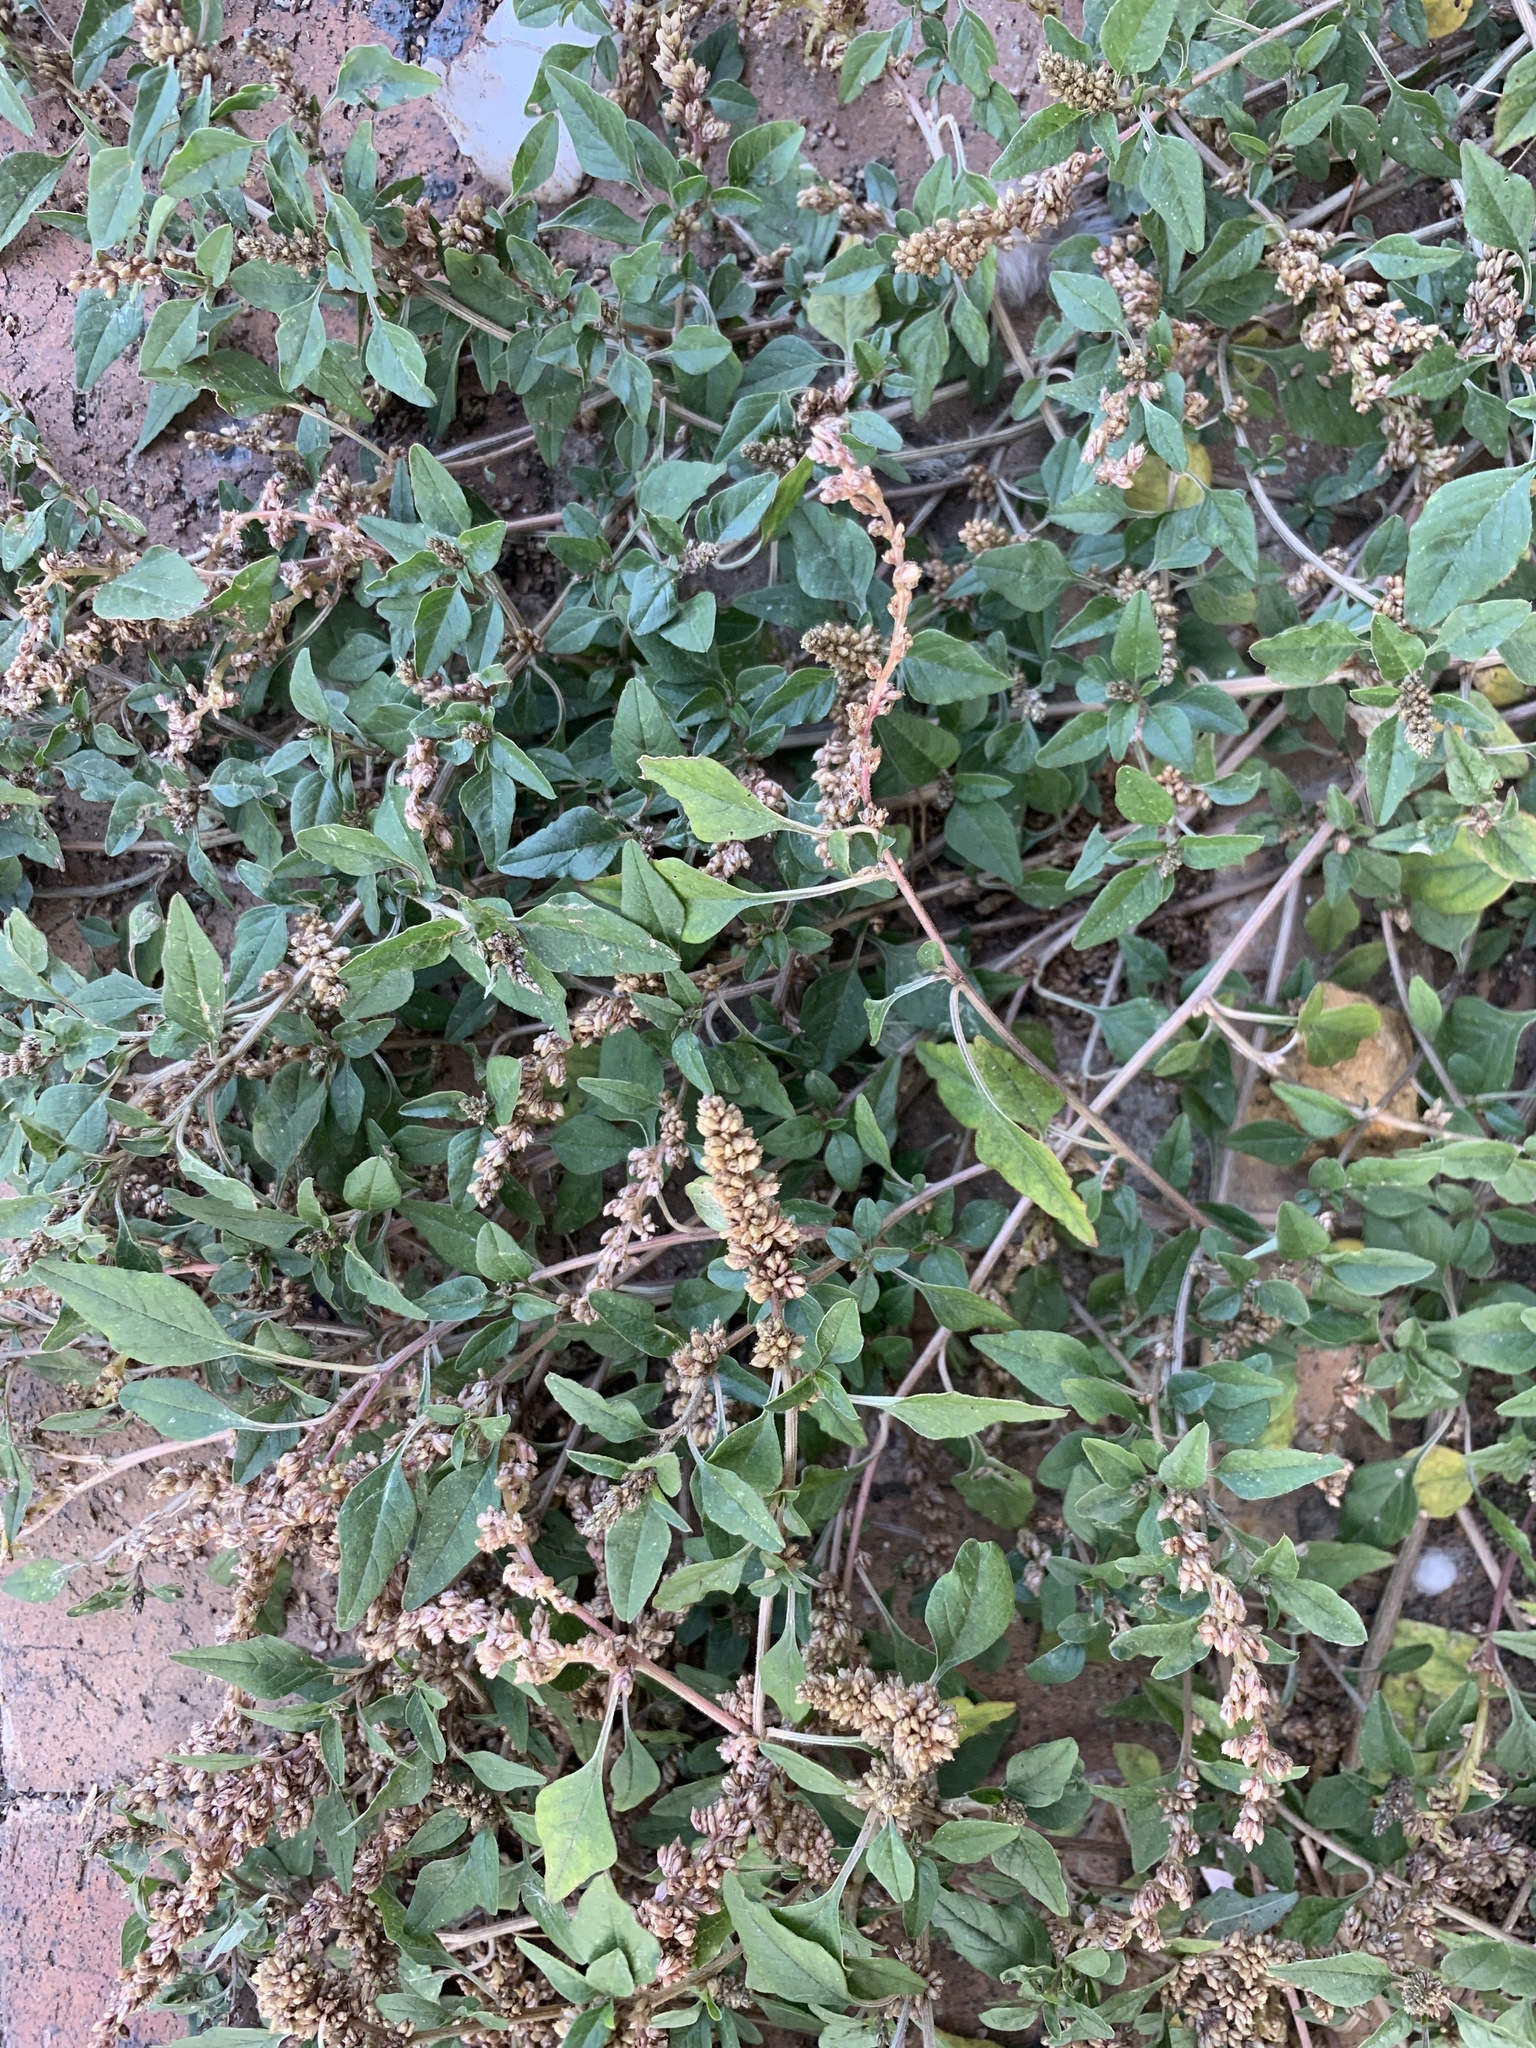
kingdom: Plantae
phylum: Tracheophyta
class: Magnoliopsida
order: Caryophyllales
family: Amaranthaceae
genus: Amaranthus
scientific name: Amaranthus deflexus
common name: Perennial pigweed
